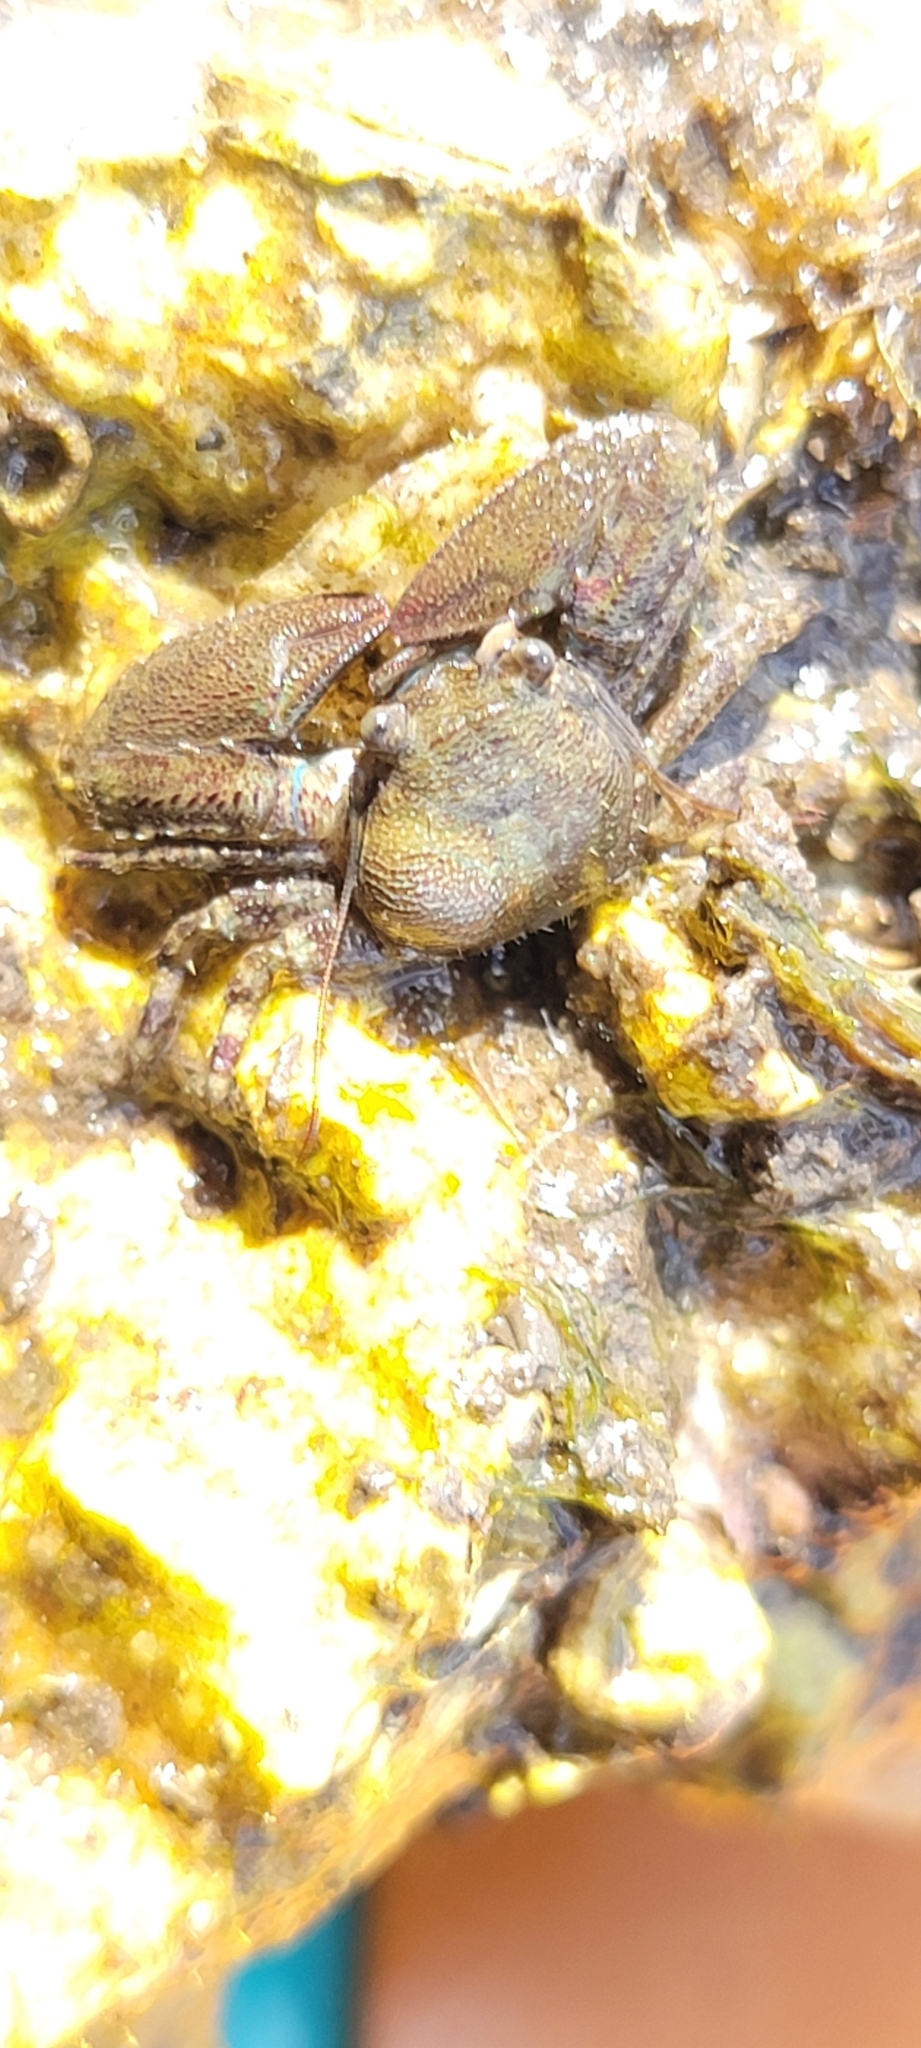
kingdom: Animalia
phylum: Arthropoda
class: Malacostraca
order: Decapoda
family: Porcellanidae
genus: Petrolisthes
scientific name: Petrolisthes armatus
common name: Green porcelain crab
